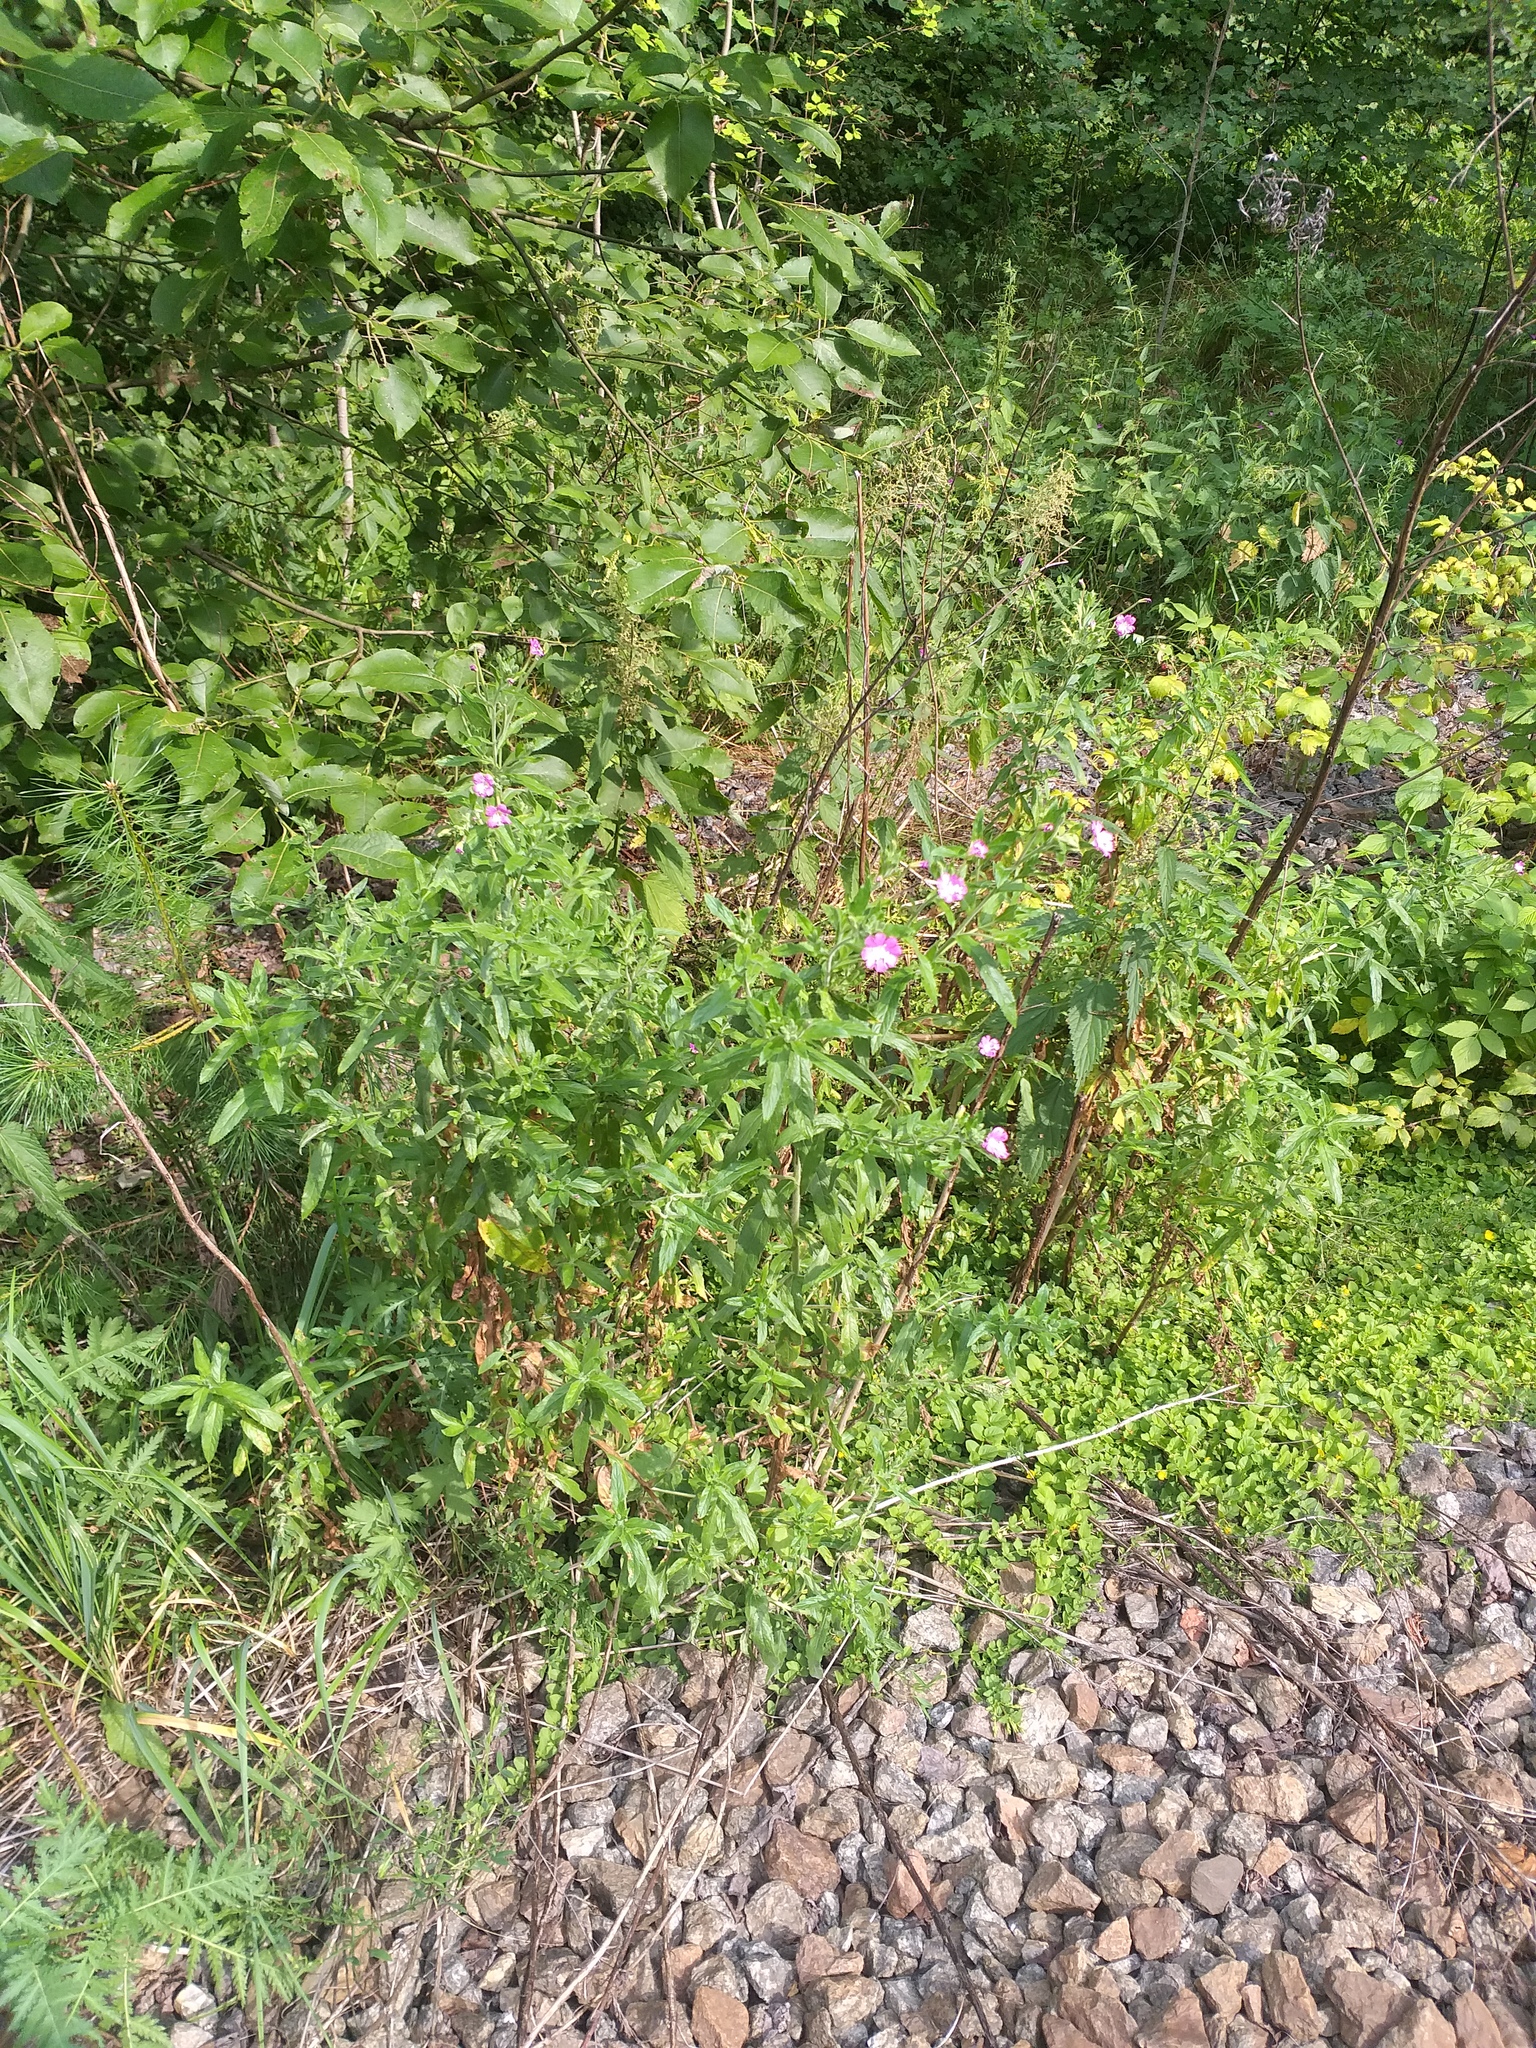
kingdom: Plantae
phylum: Tracheophyta
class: Magnoliopsida
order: Myrtales
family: Onagraceae
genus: Epilobium
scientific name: Epilobium hirsutum
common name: Great willowherb
